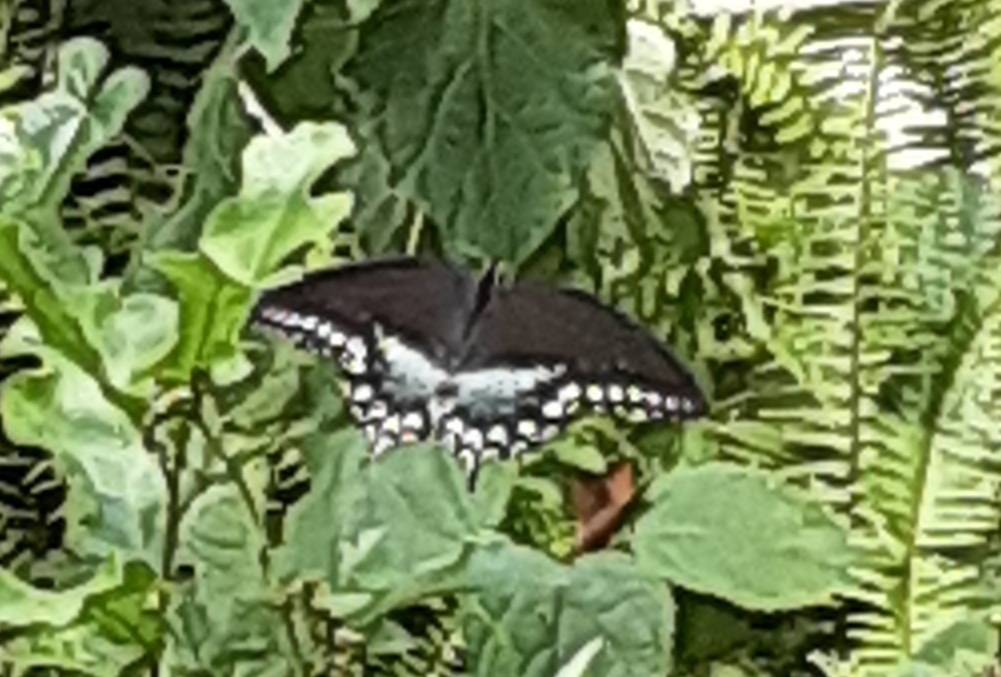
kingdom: Animalia
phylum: Arthropoda
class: Insecta
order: Lepidoptera
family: Papilionidae
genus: Papilio
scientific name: Papilio troilus
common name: Spicebush swallowtail
